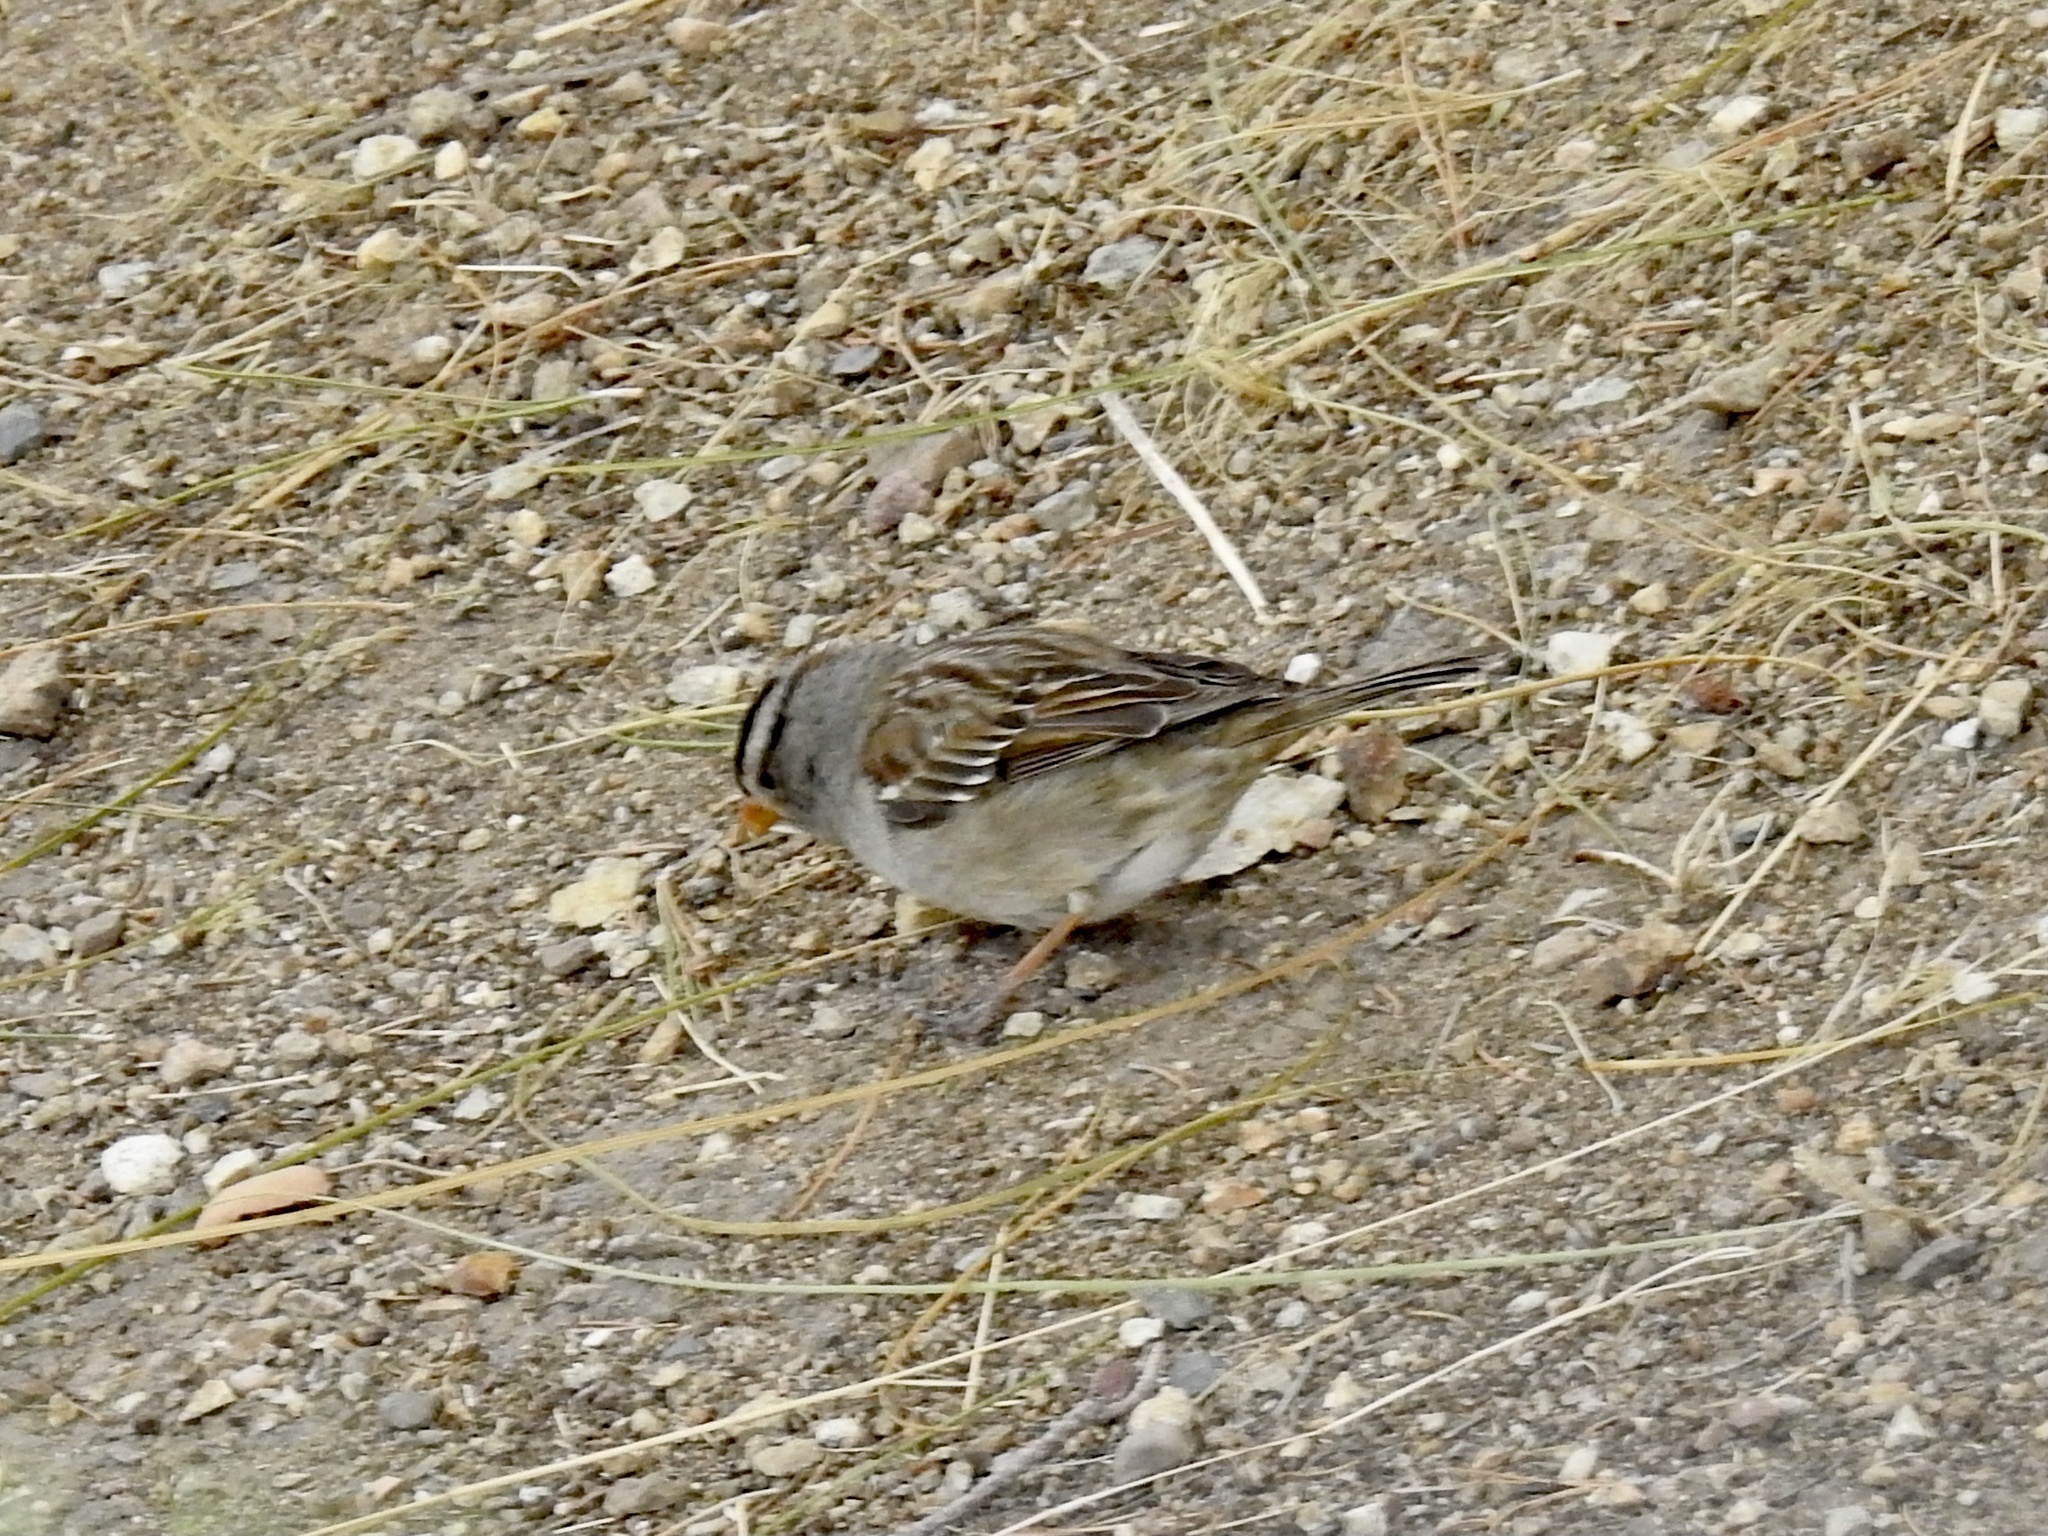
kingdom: Animalia
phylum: Chordata
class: Aves
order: Passeriformes
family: Passerellidae
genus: Zonotrichia
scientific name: Zonotrichia leucophrys
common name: White-crowned sparrow
